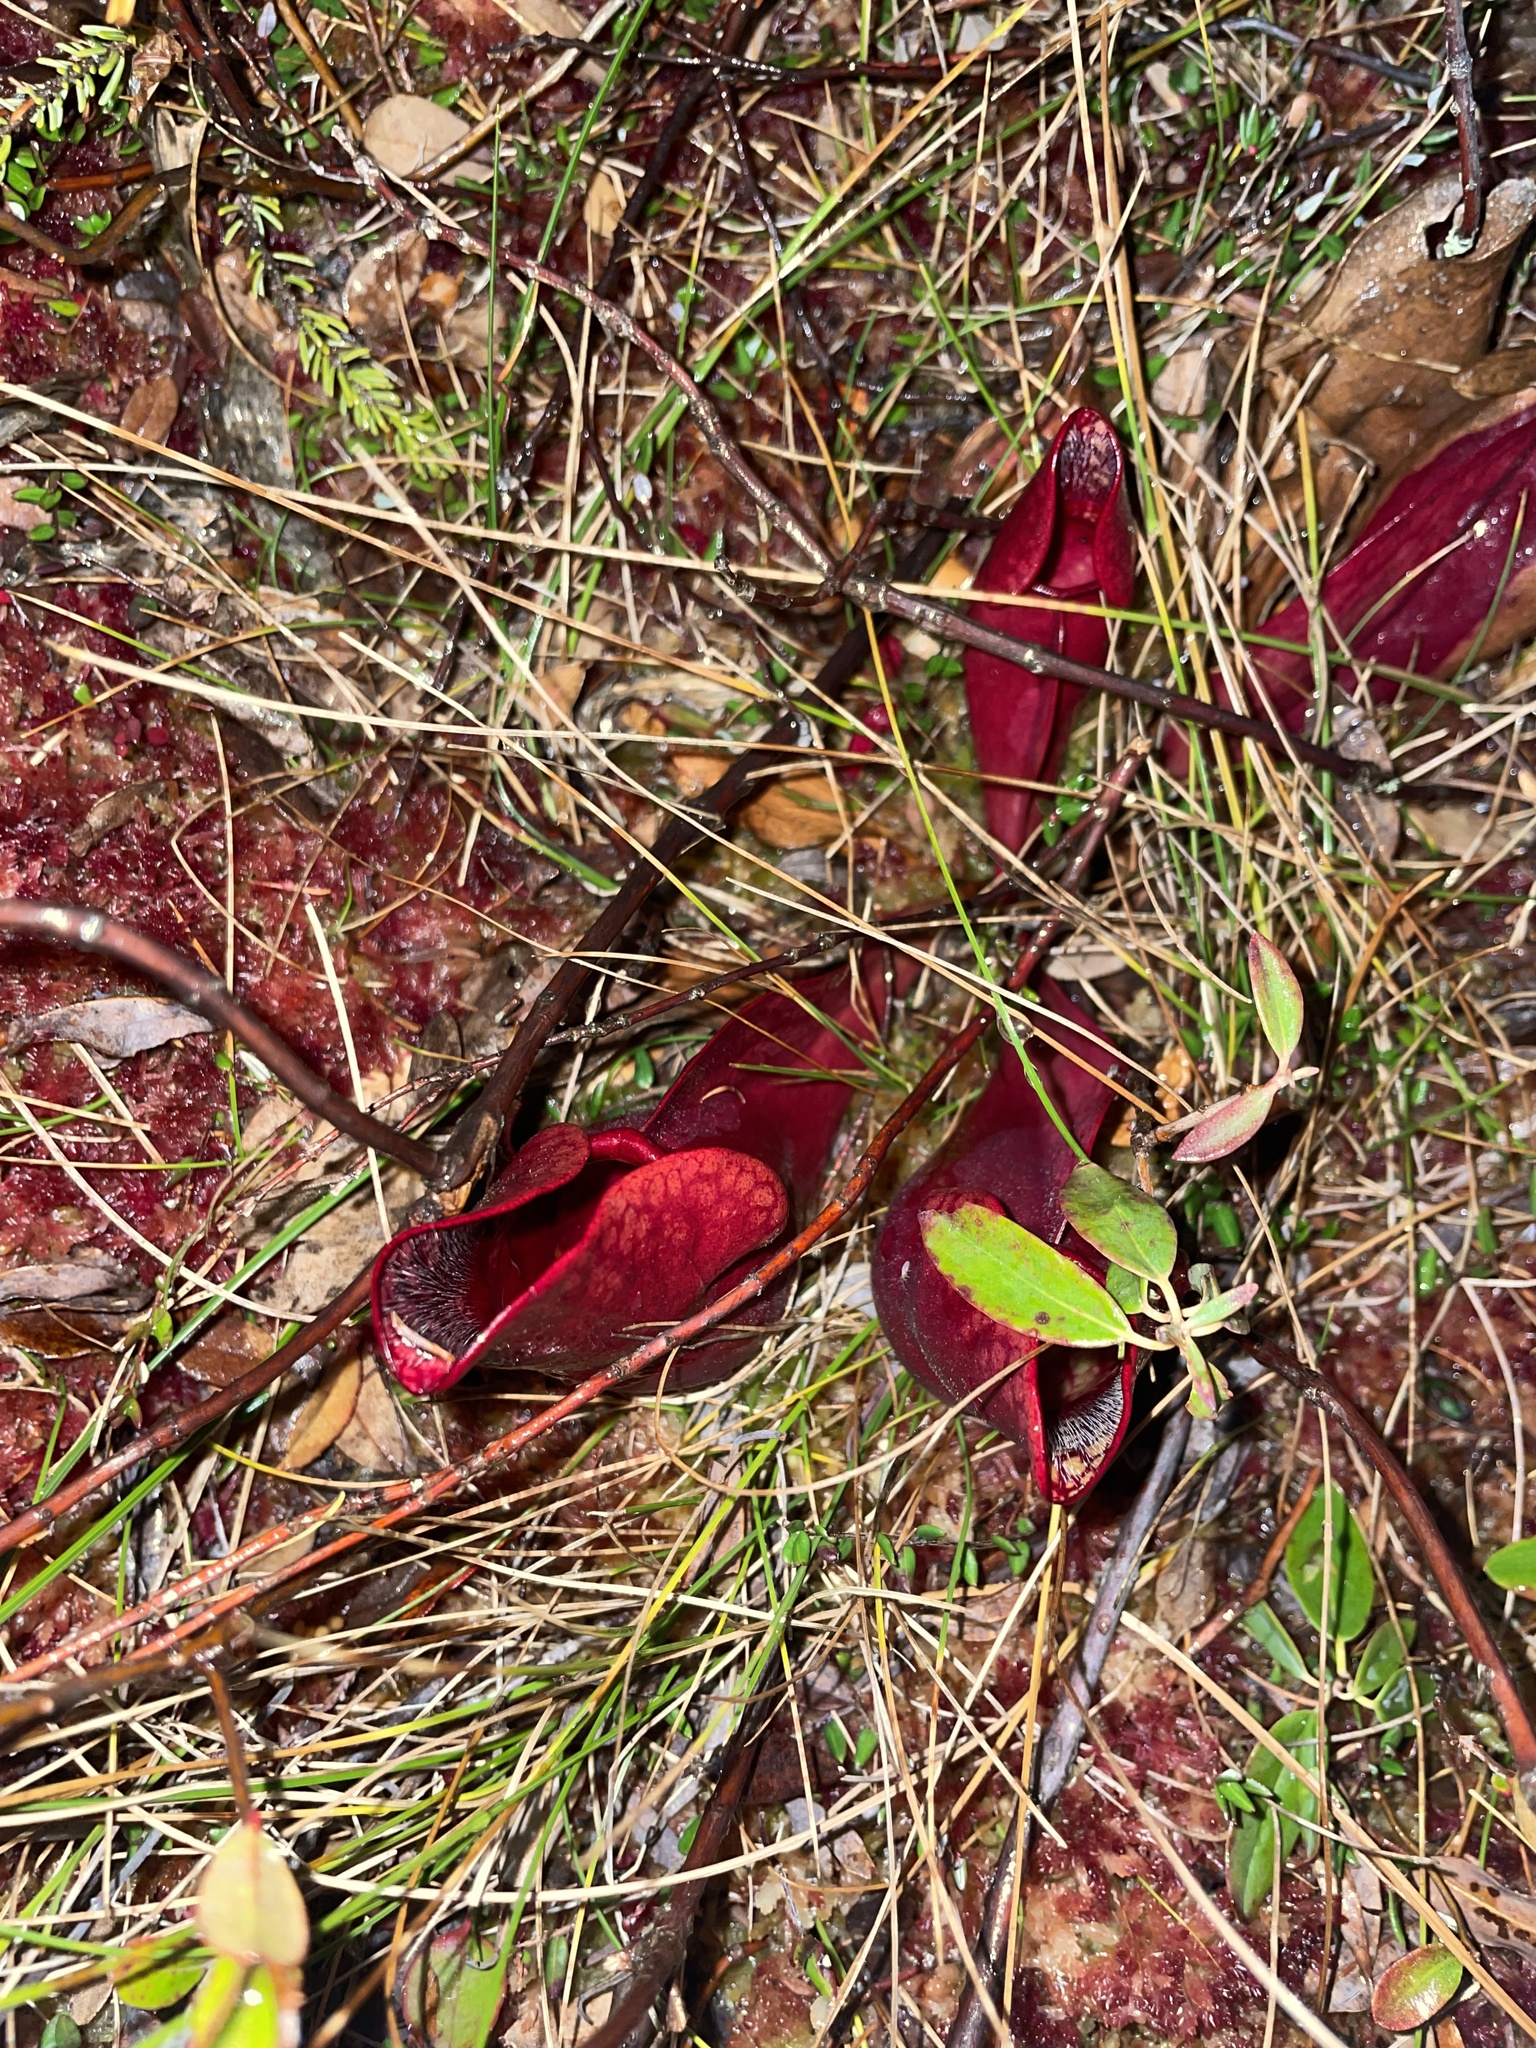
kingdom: Plantae
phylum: Tracheophyta
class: Magnoliopsida
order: Ericales
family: Sarraceniaceae
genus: Sarracenia
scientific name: Sarracenia purpurea
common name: Pitcherplant
